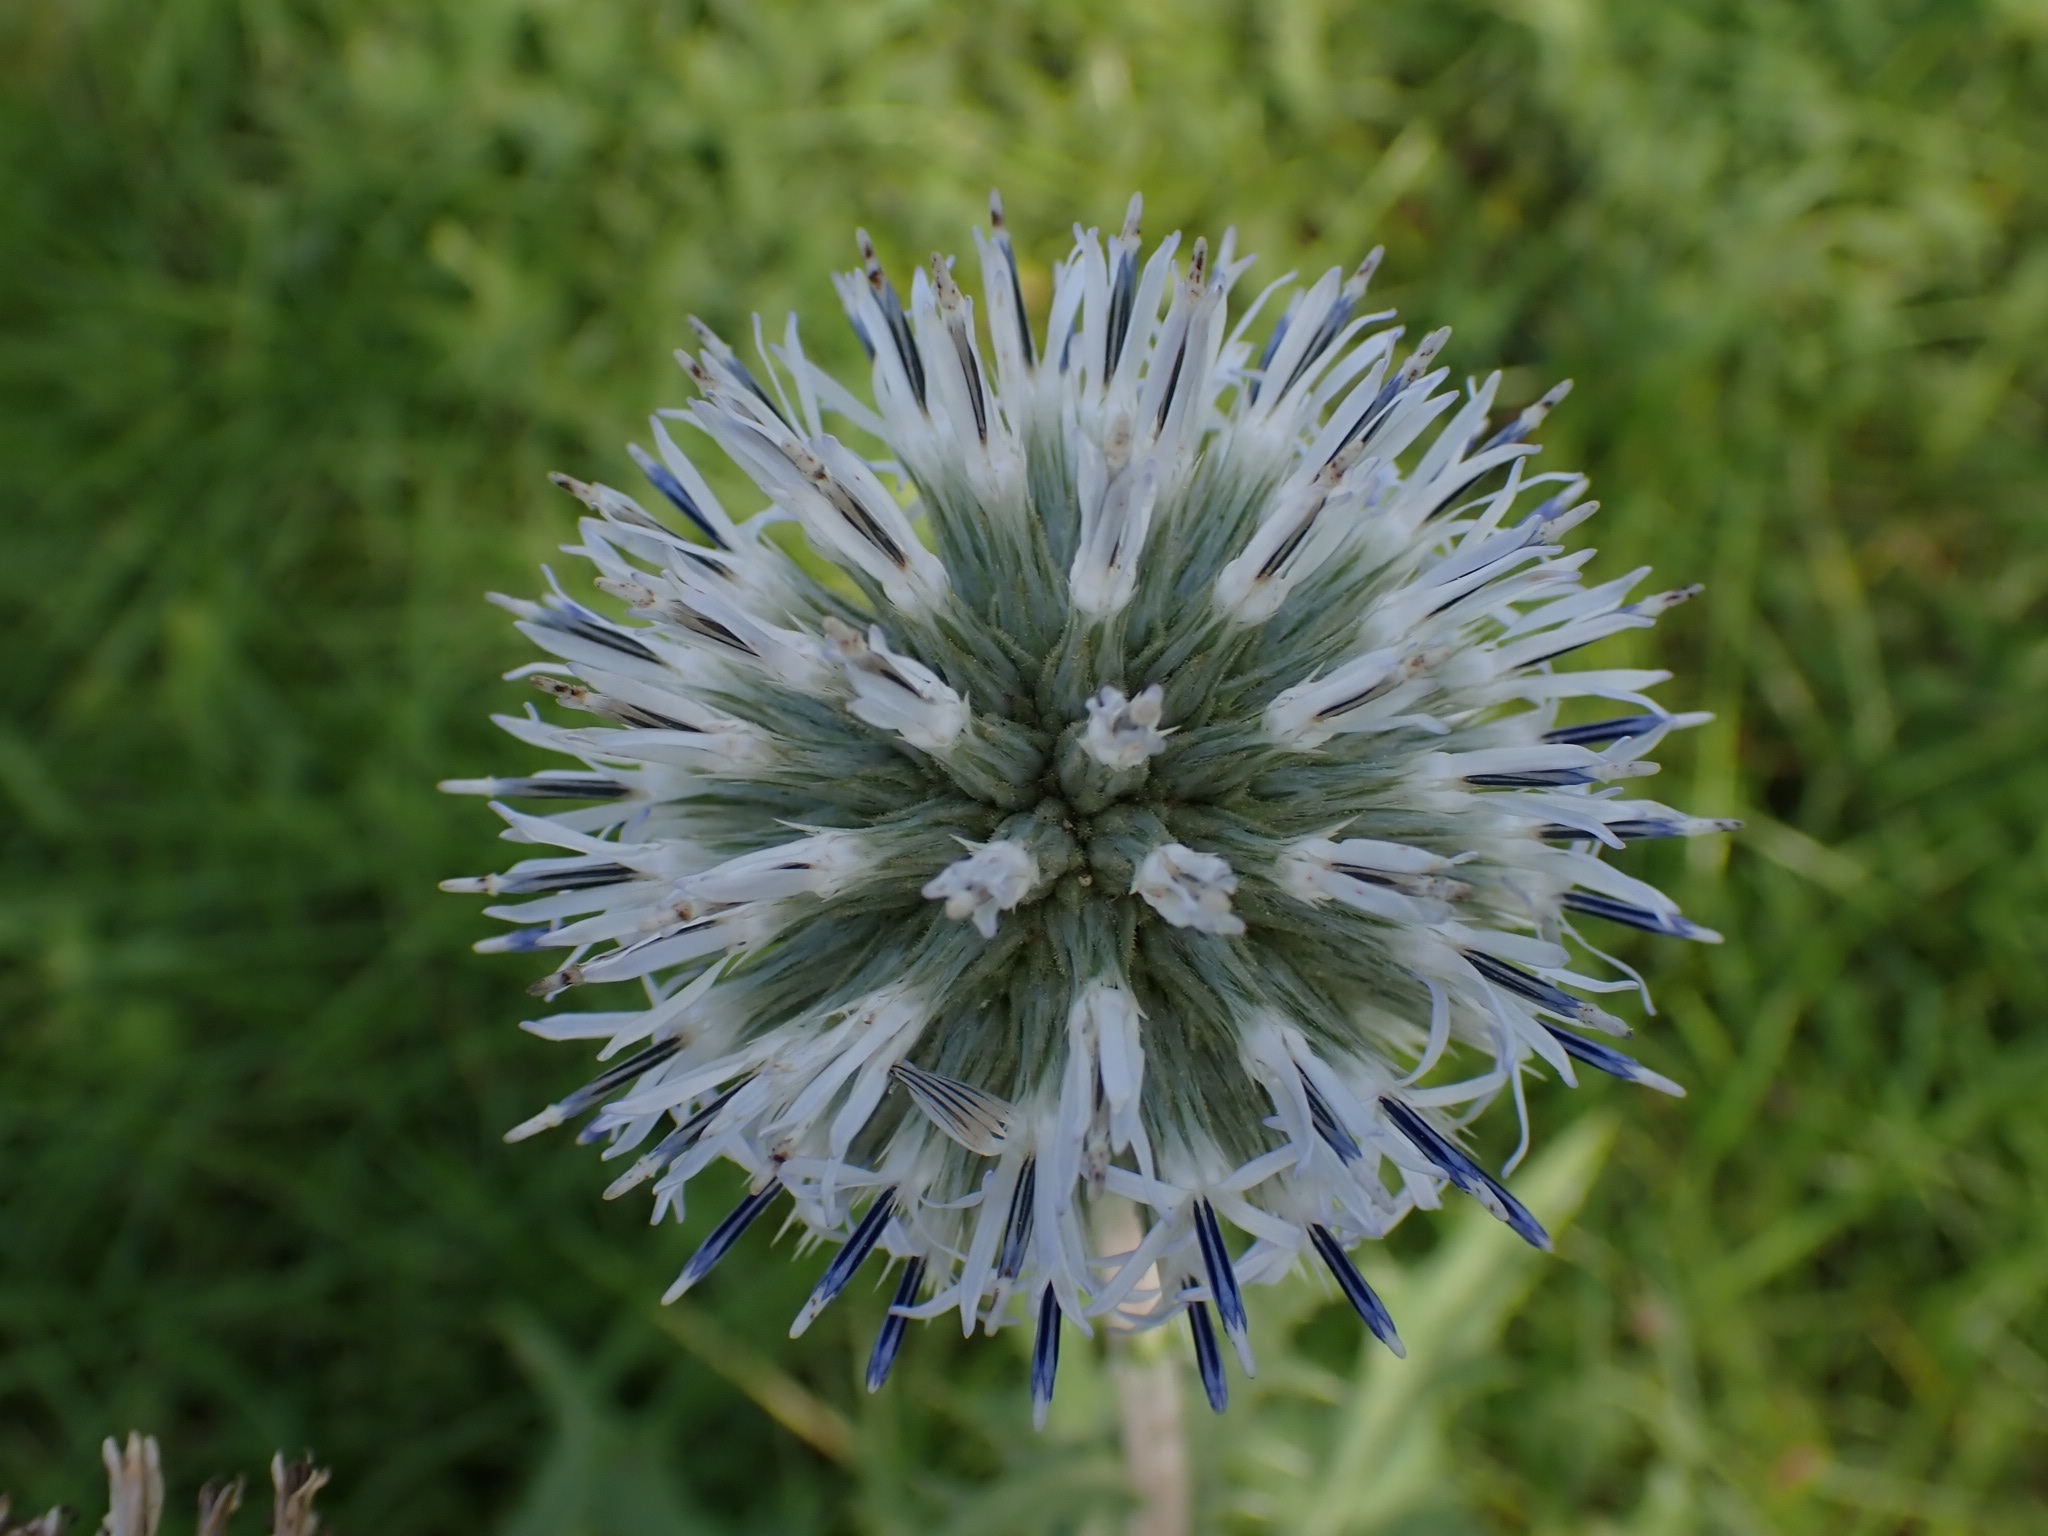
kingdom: Plantae
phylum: Tracheophyta
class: Magnoliopsida
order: Asterales
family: Asteraceae
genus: Echinops
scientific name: Echinops sphaerocephalus
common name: Glandular globe-thistle
